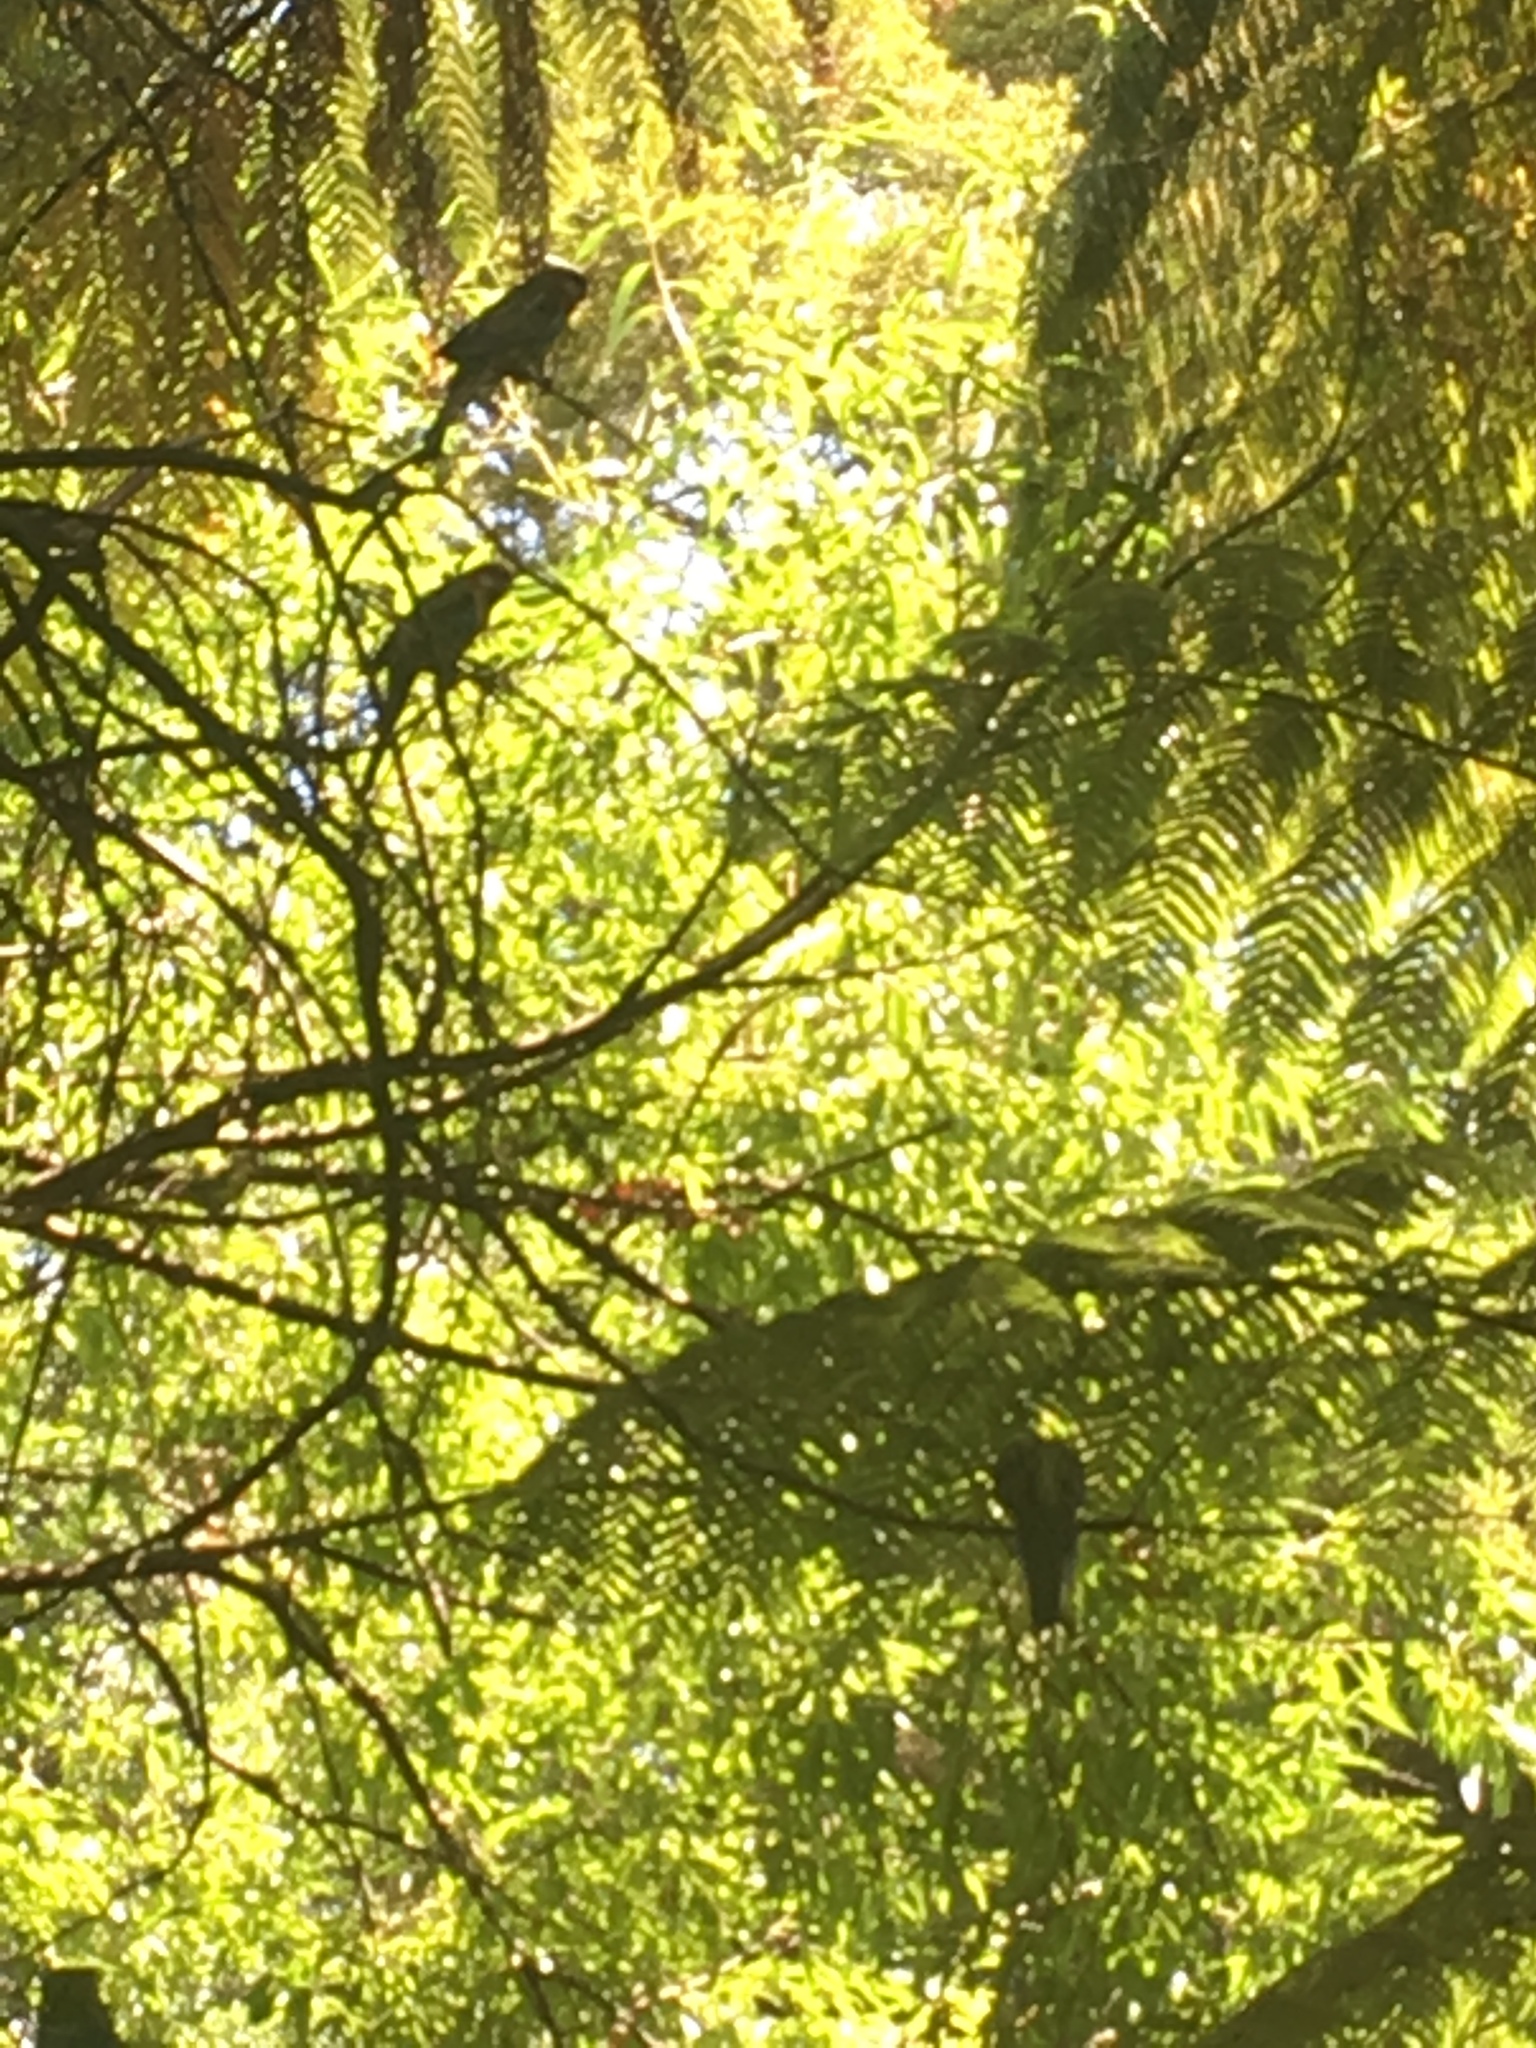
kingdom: Animalia
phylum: Chordata
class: Aves
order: Psittaciformes
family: Psittacidae
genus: Platycercus
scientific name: Platycercus eximius
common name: Eastern rosella
